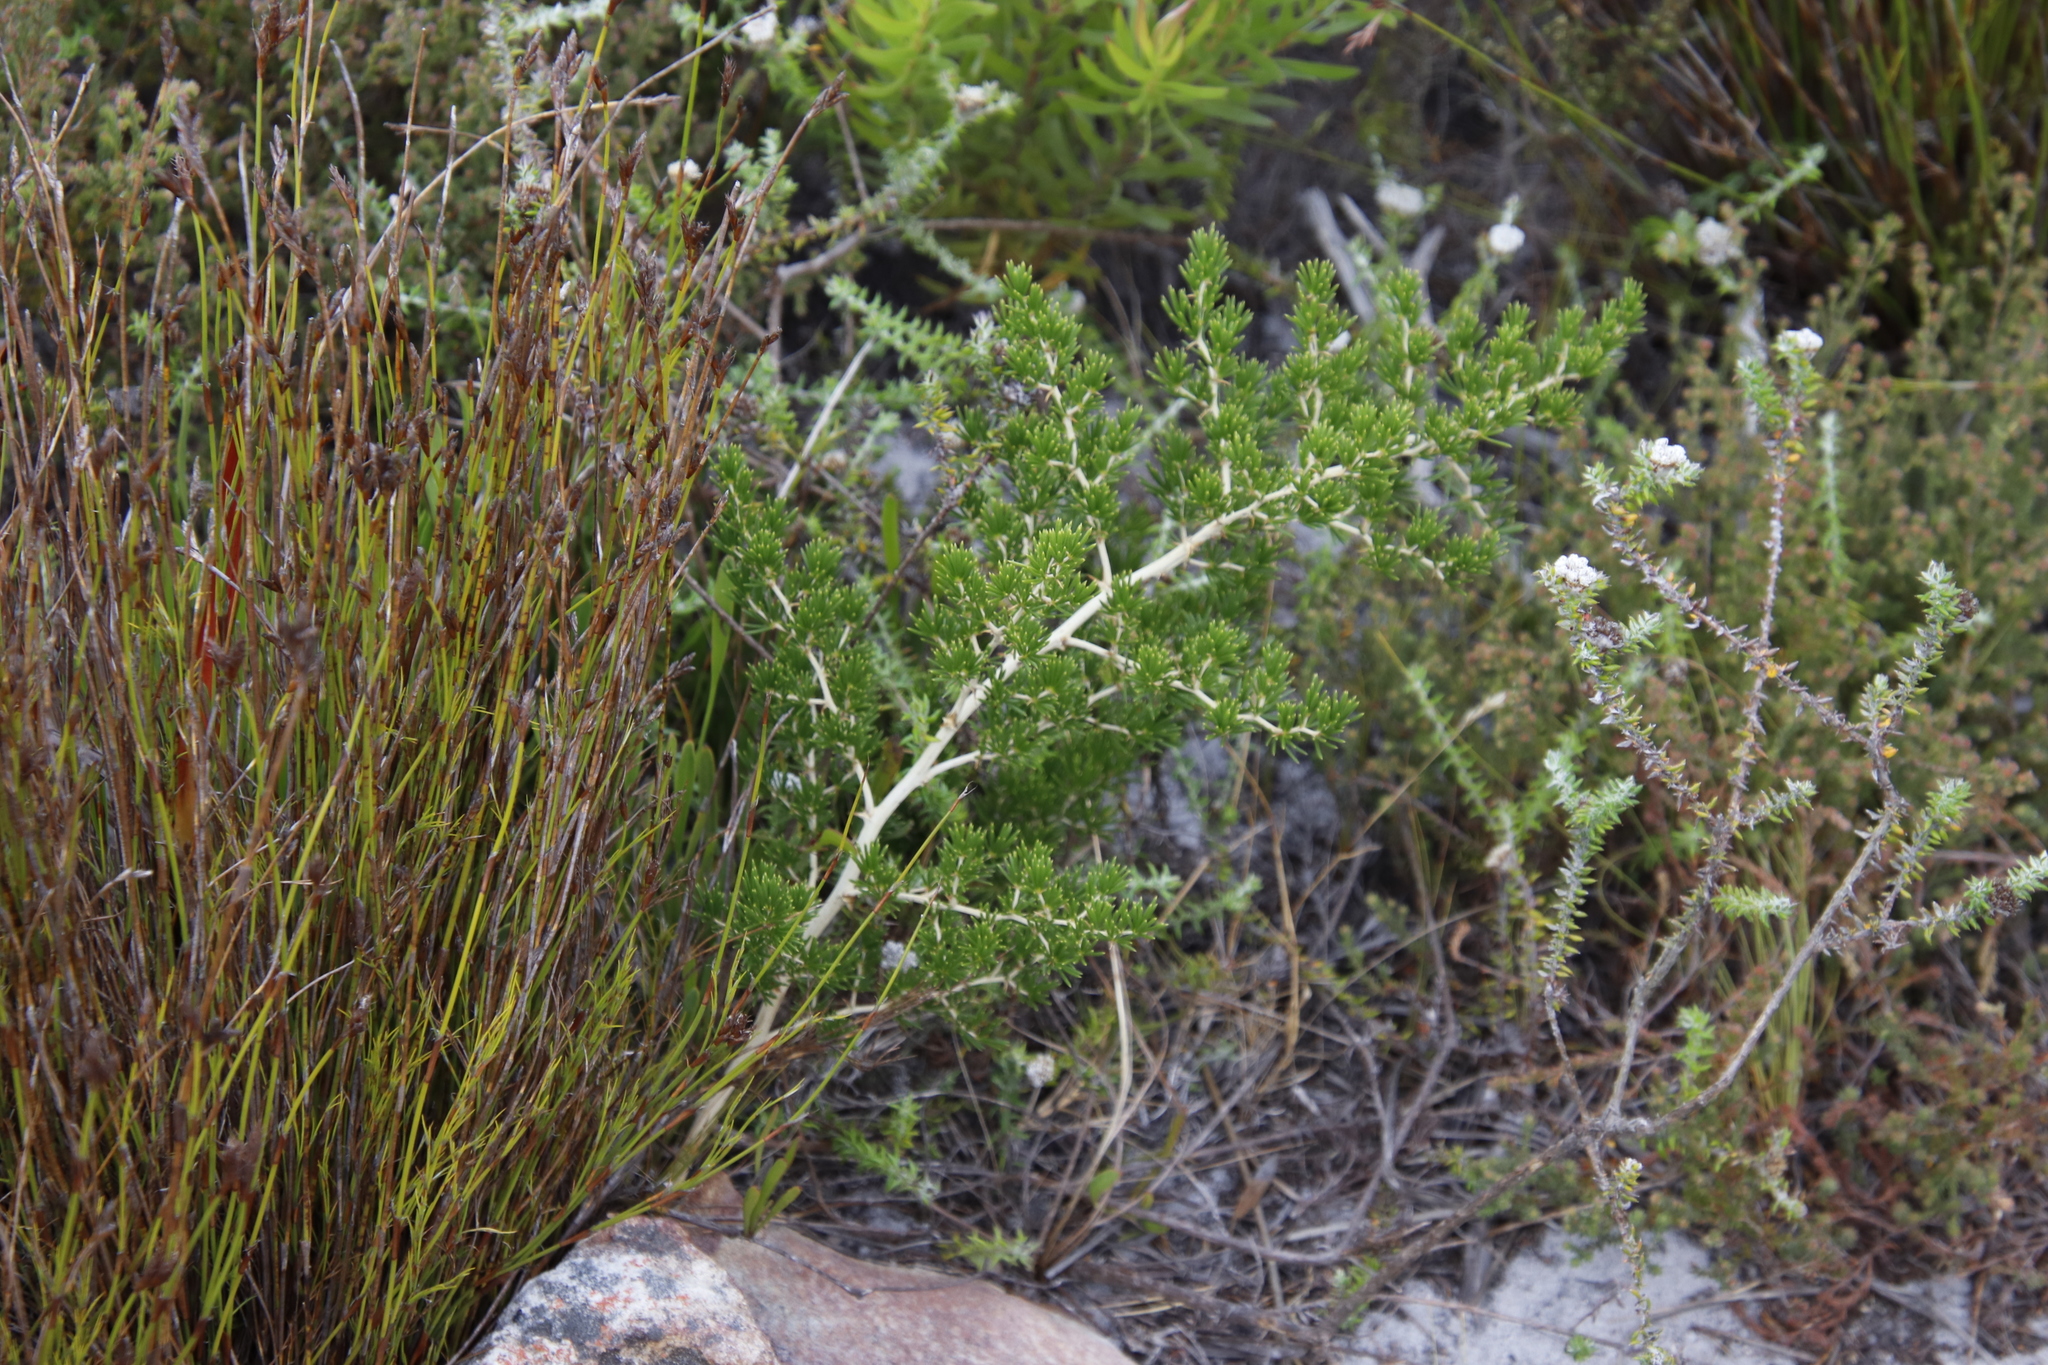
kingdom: Plantae
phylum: Tracheophyta
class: Liliopsida
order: Asparagales
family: Asparagaceae
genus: Asparagus
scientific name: Asparagus lignosus
